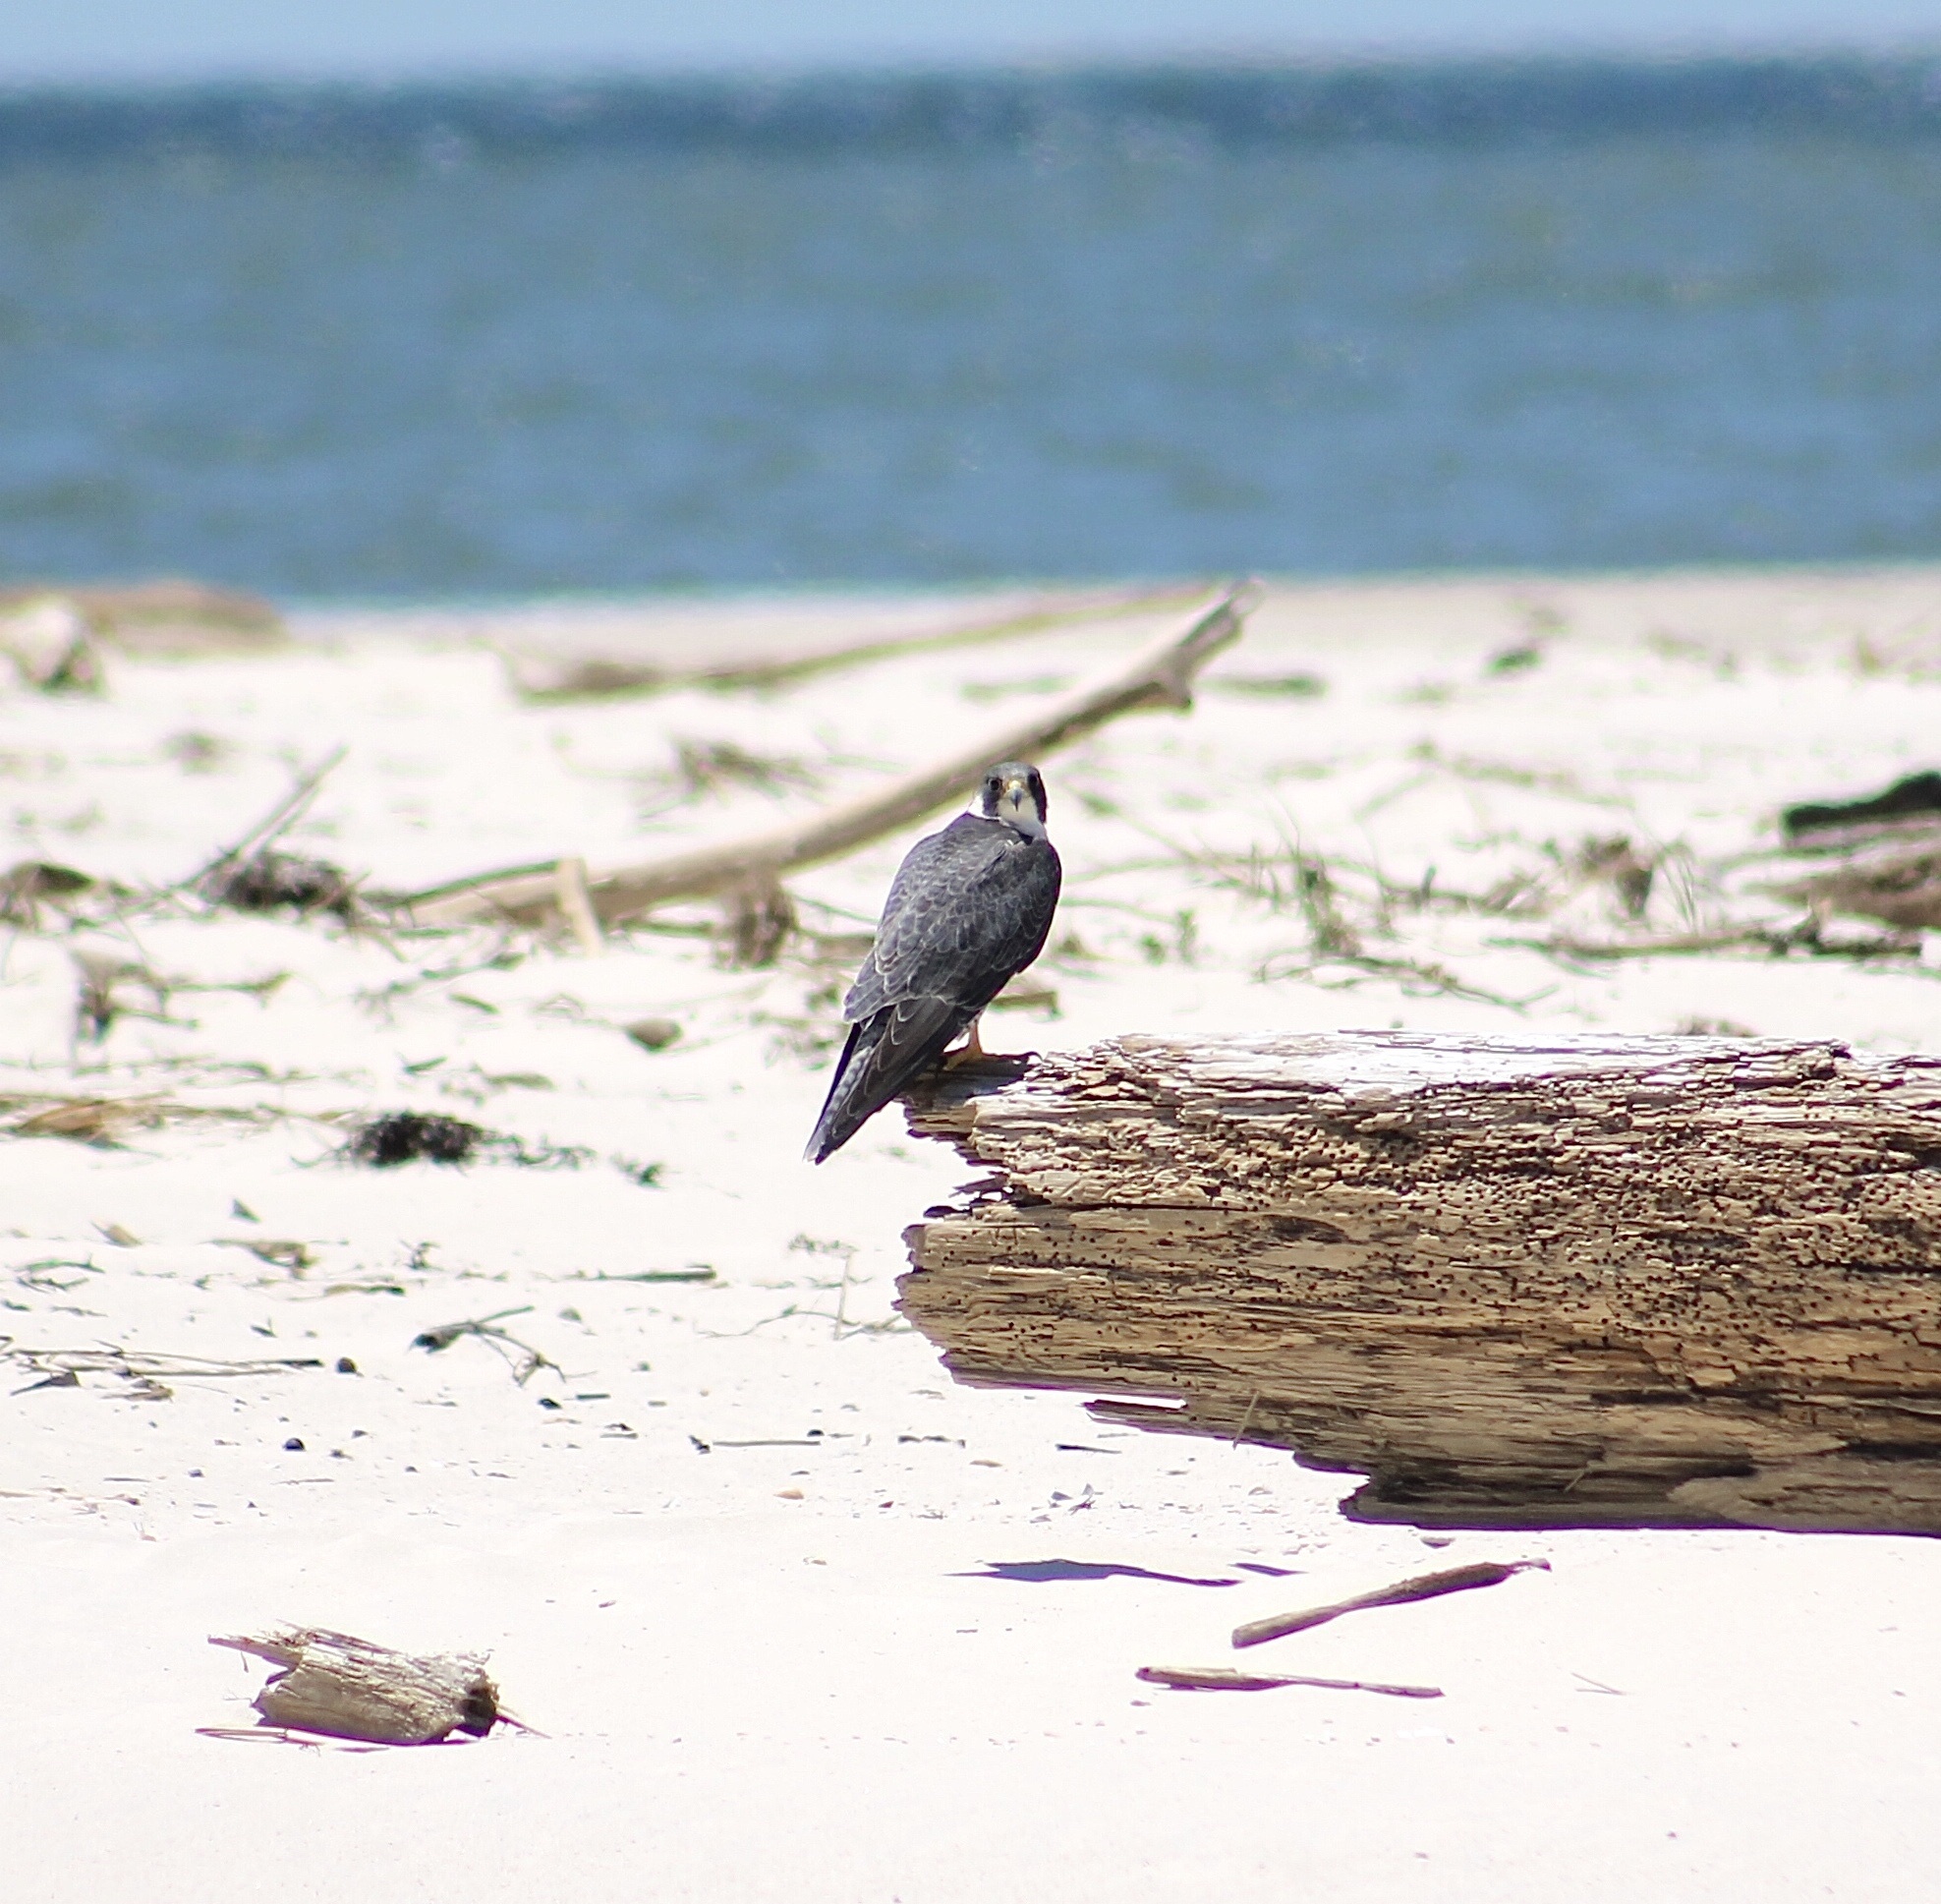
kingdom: Animalia
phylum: Chordata
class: Aves
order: Falconiformes
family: Falconidae
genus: Falco
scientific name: Falco peregrinus
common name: Peregrine falcon
